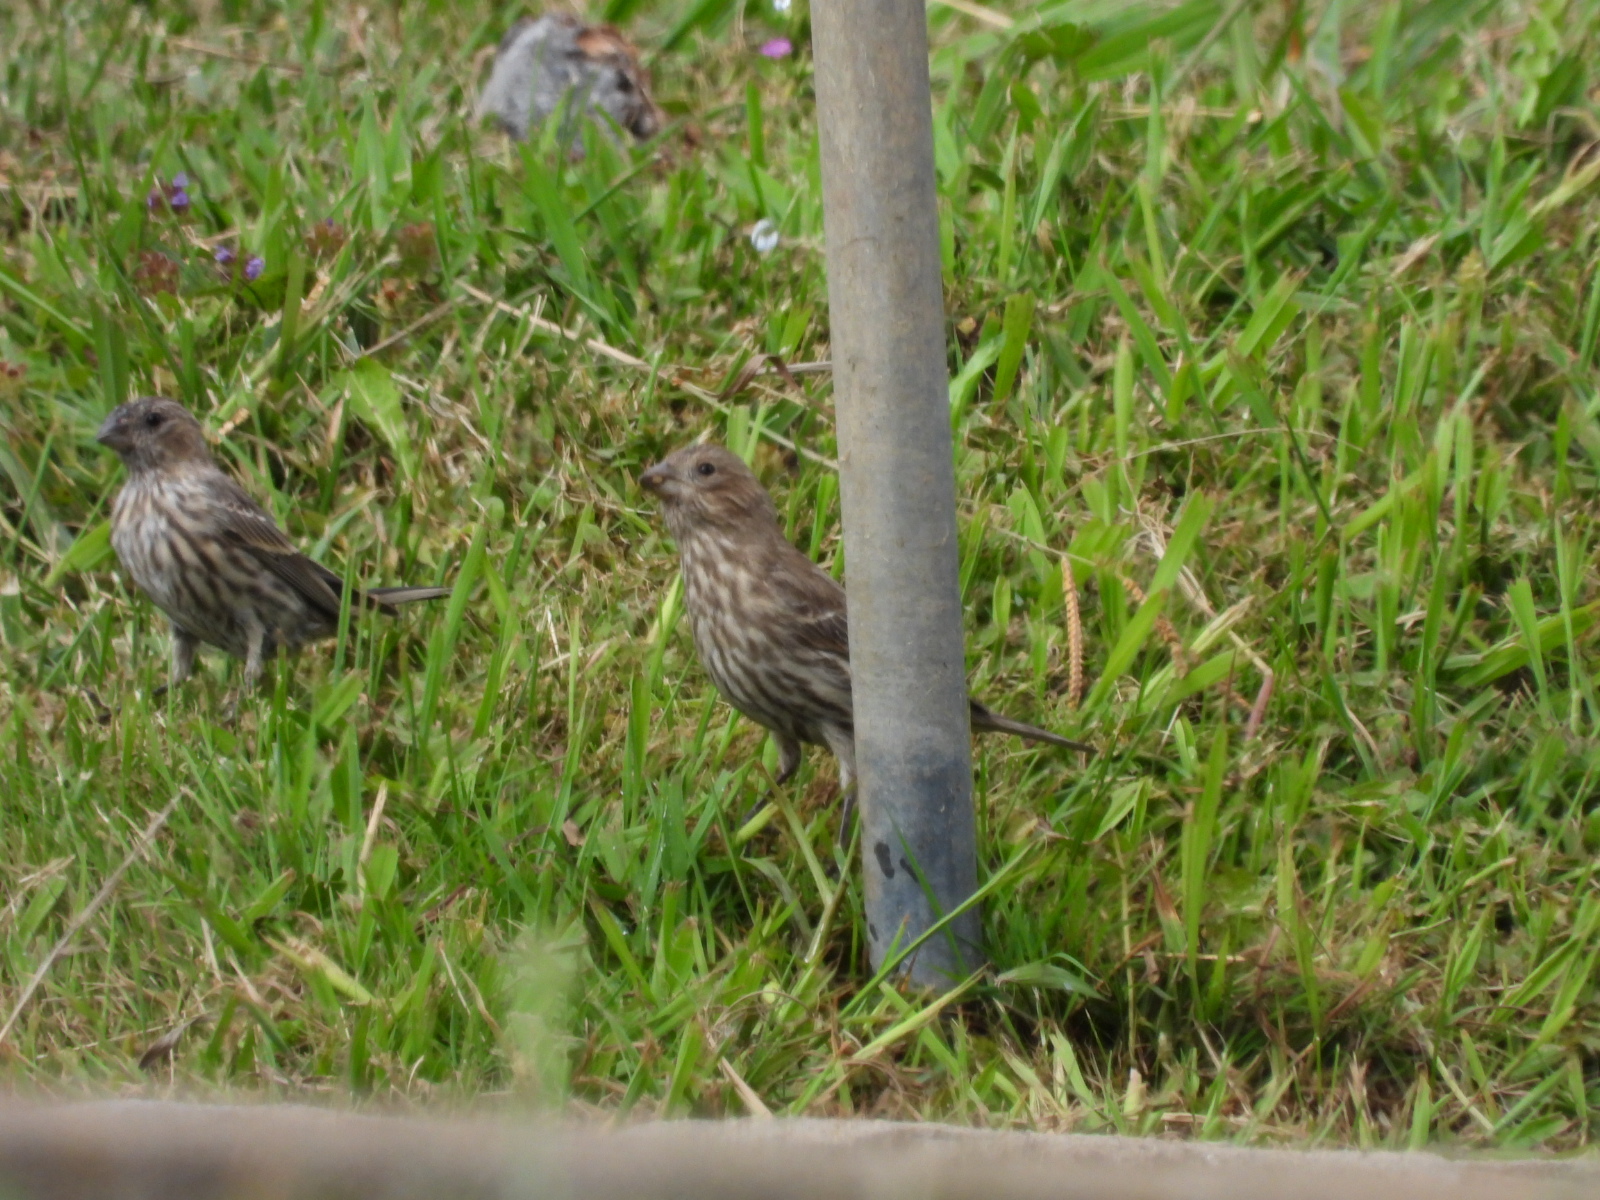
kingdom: Animalia
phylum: Chordata
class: Aves
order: Passeriformes
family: Fringillidae
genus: Haemorhous
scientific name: Haemorhous mexicanus
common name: House finch
